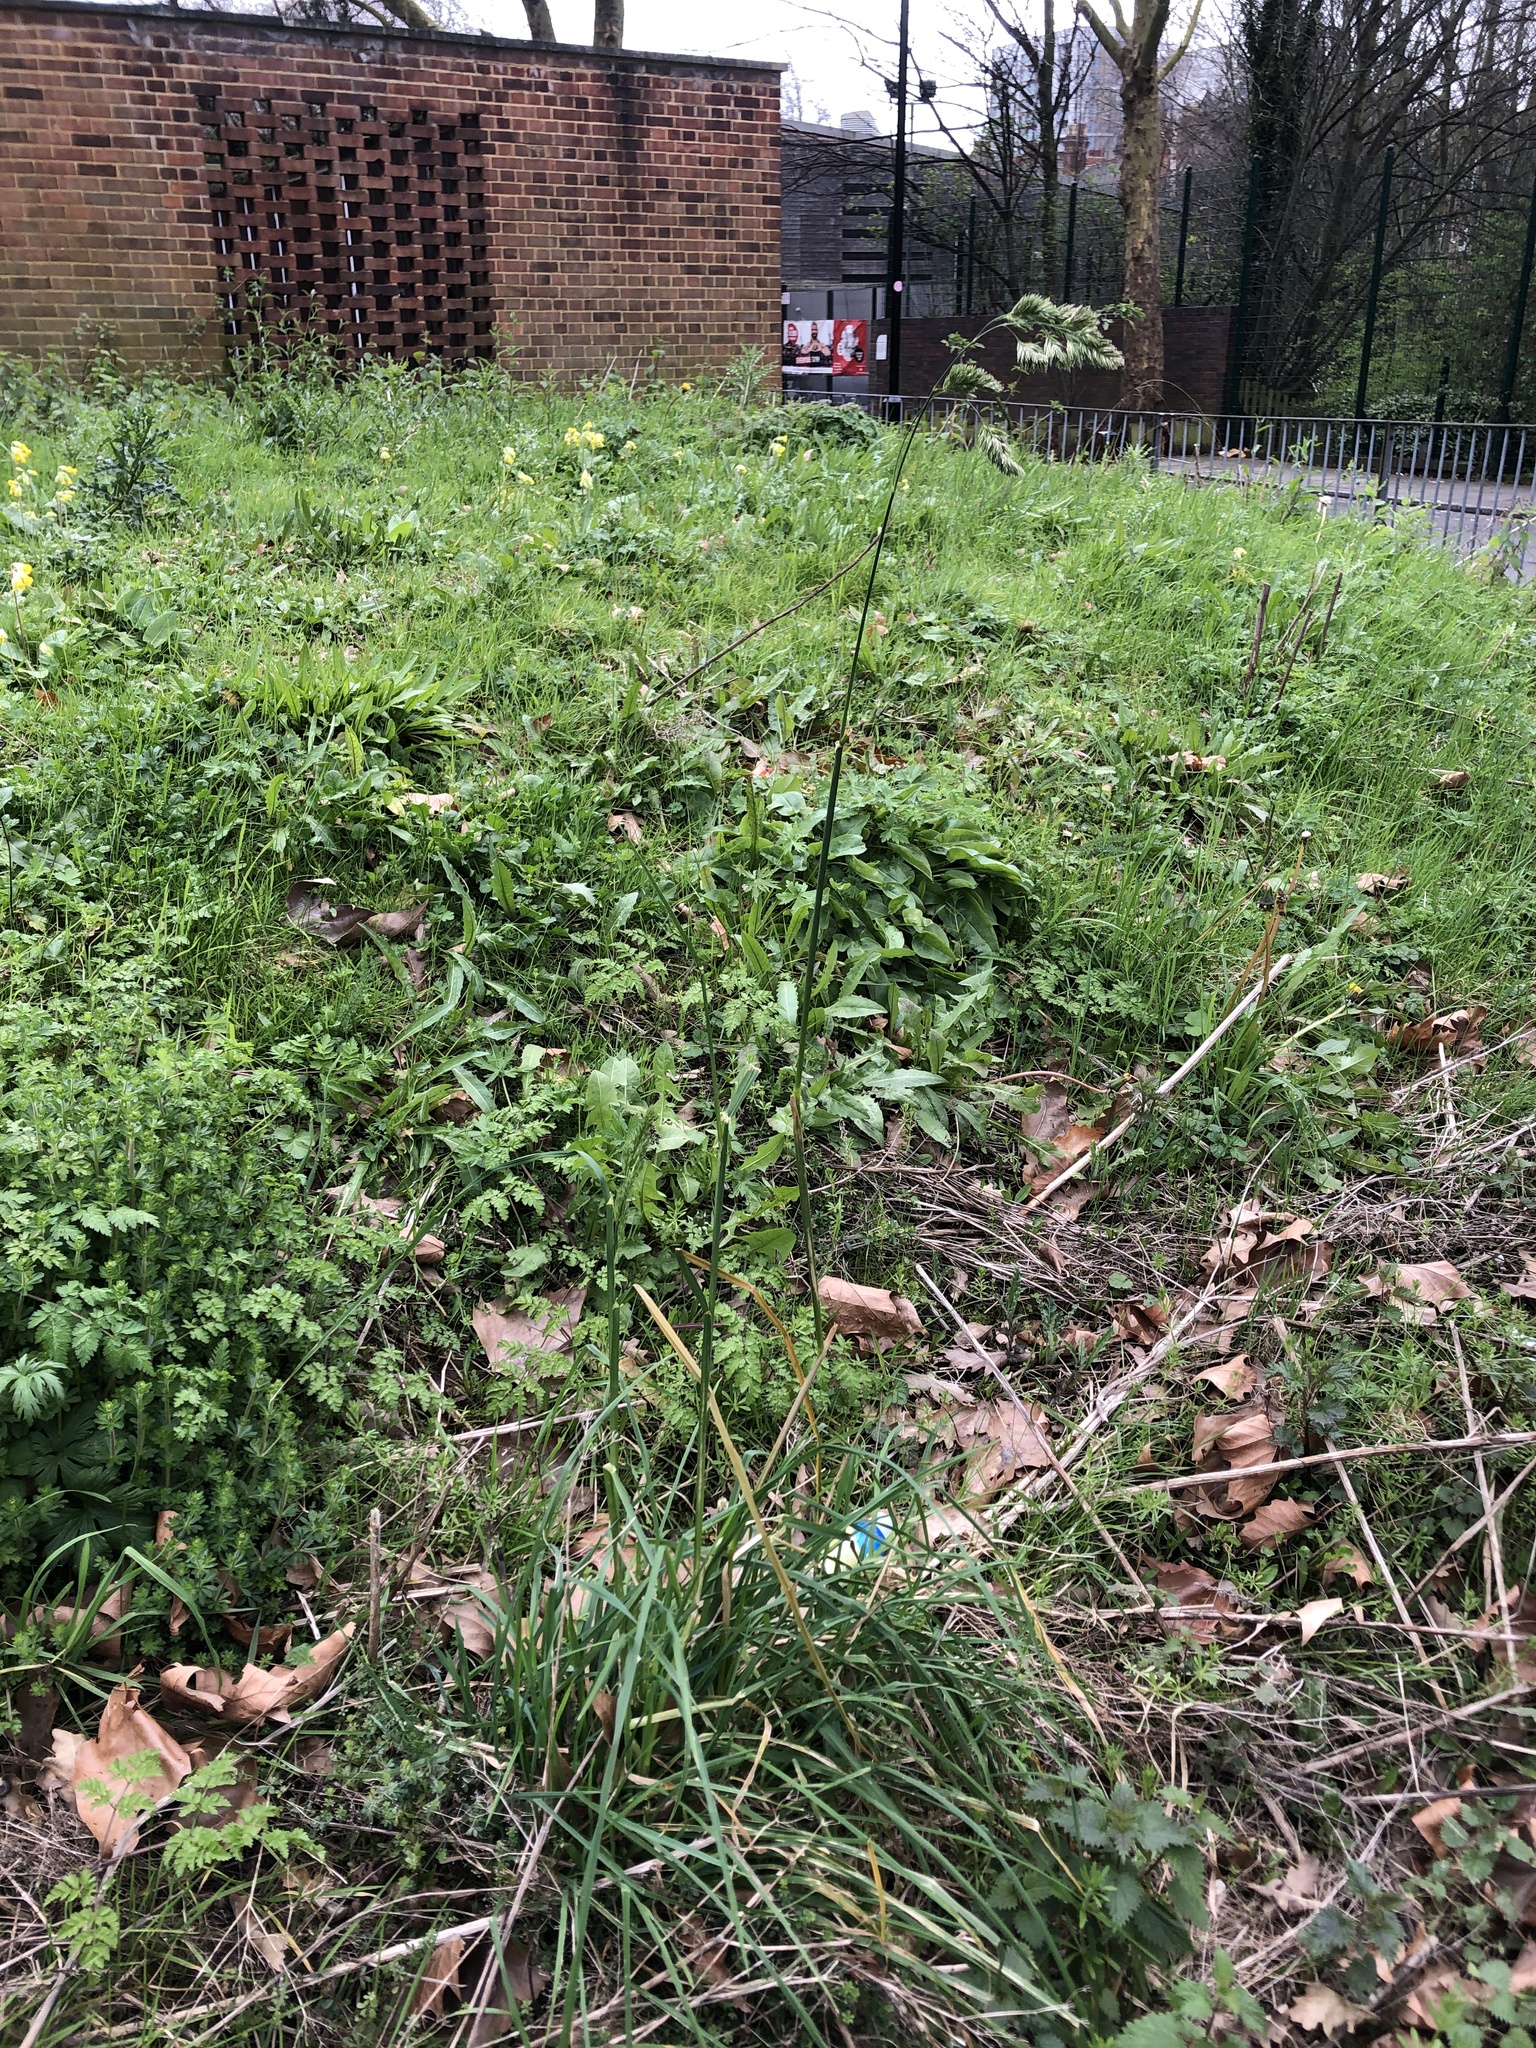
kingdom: Plantae
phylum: Tracheophyta
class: Liliopsida
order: Poales
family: Poaceae
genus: Dactylis
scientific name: Dactylis glomerata
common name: Orchardgrass
